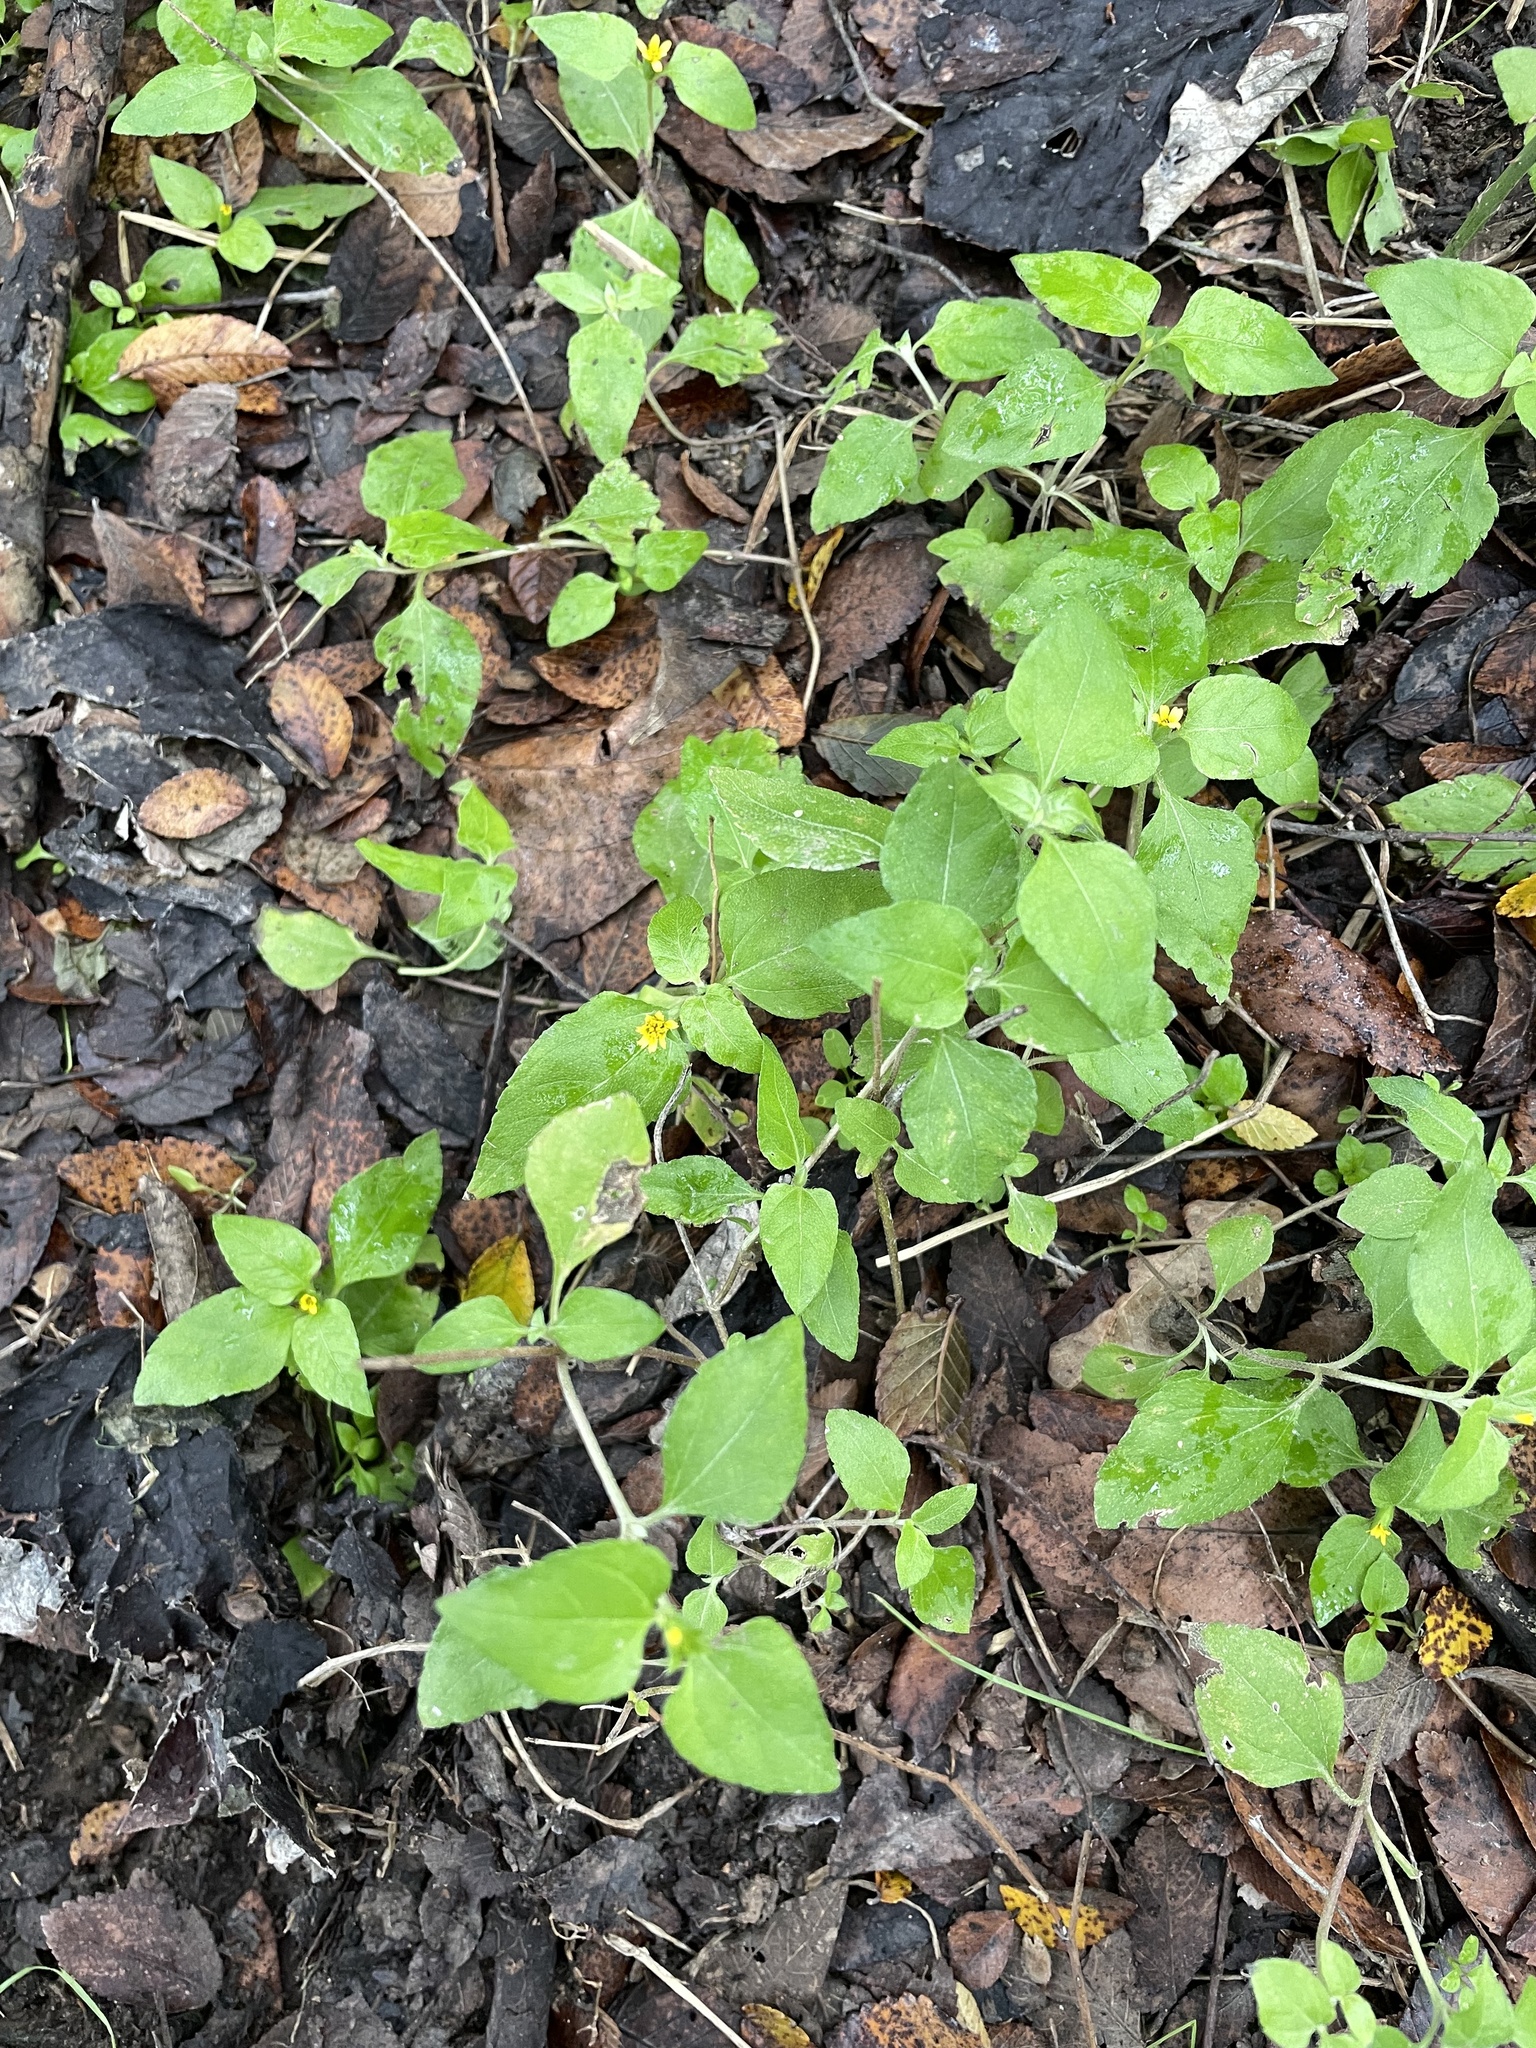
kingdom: Plantae
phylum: Tracheophyta
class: Magnoliopsida
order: Asterales
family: Asteraceae
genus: Calyptocarpus
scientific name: Calyptocarpus vialis
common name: Straggler daisy
